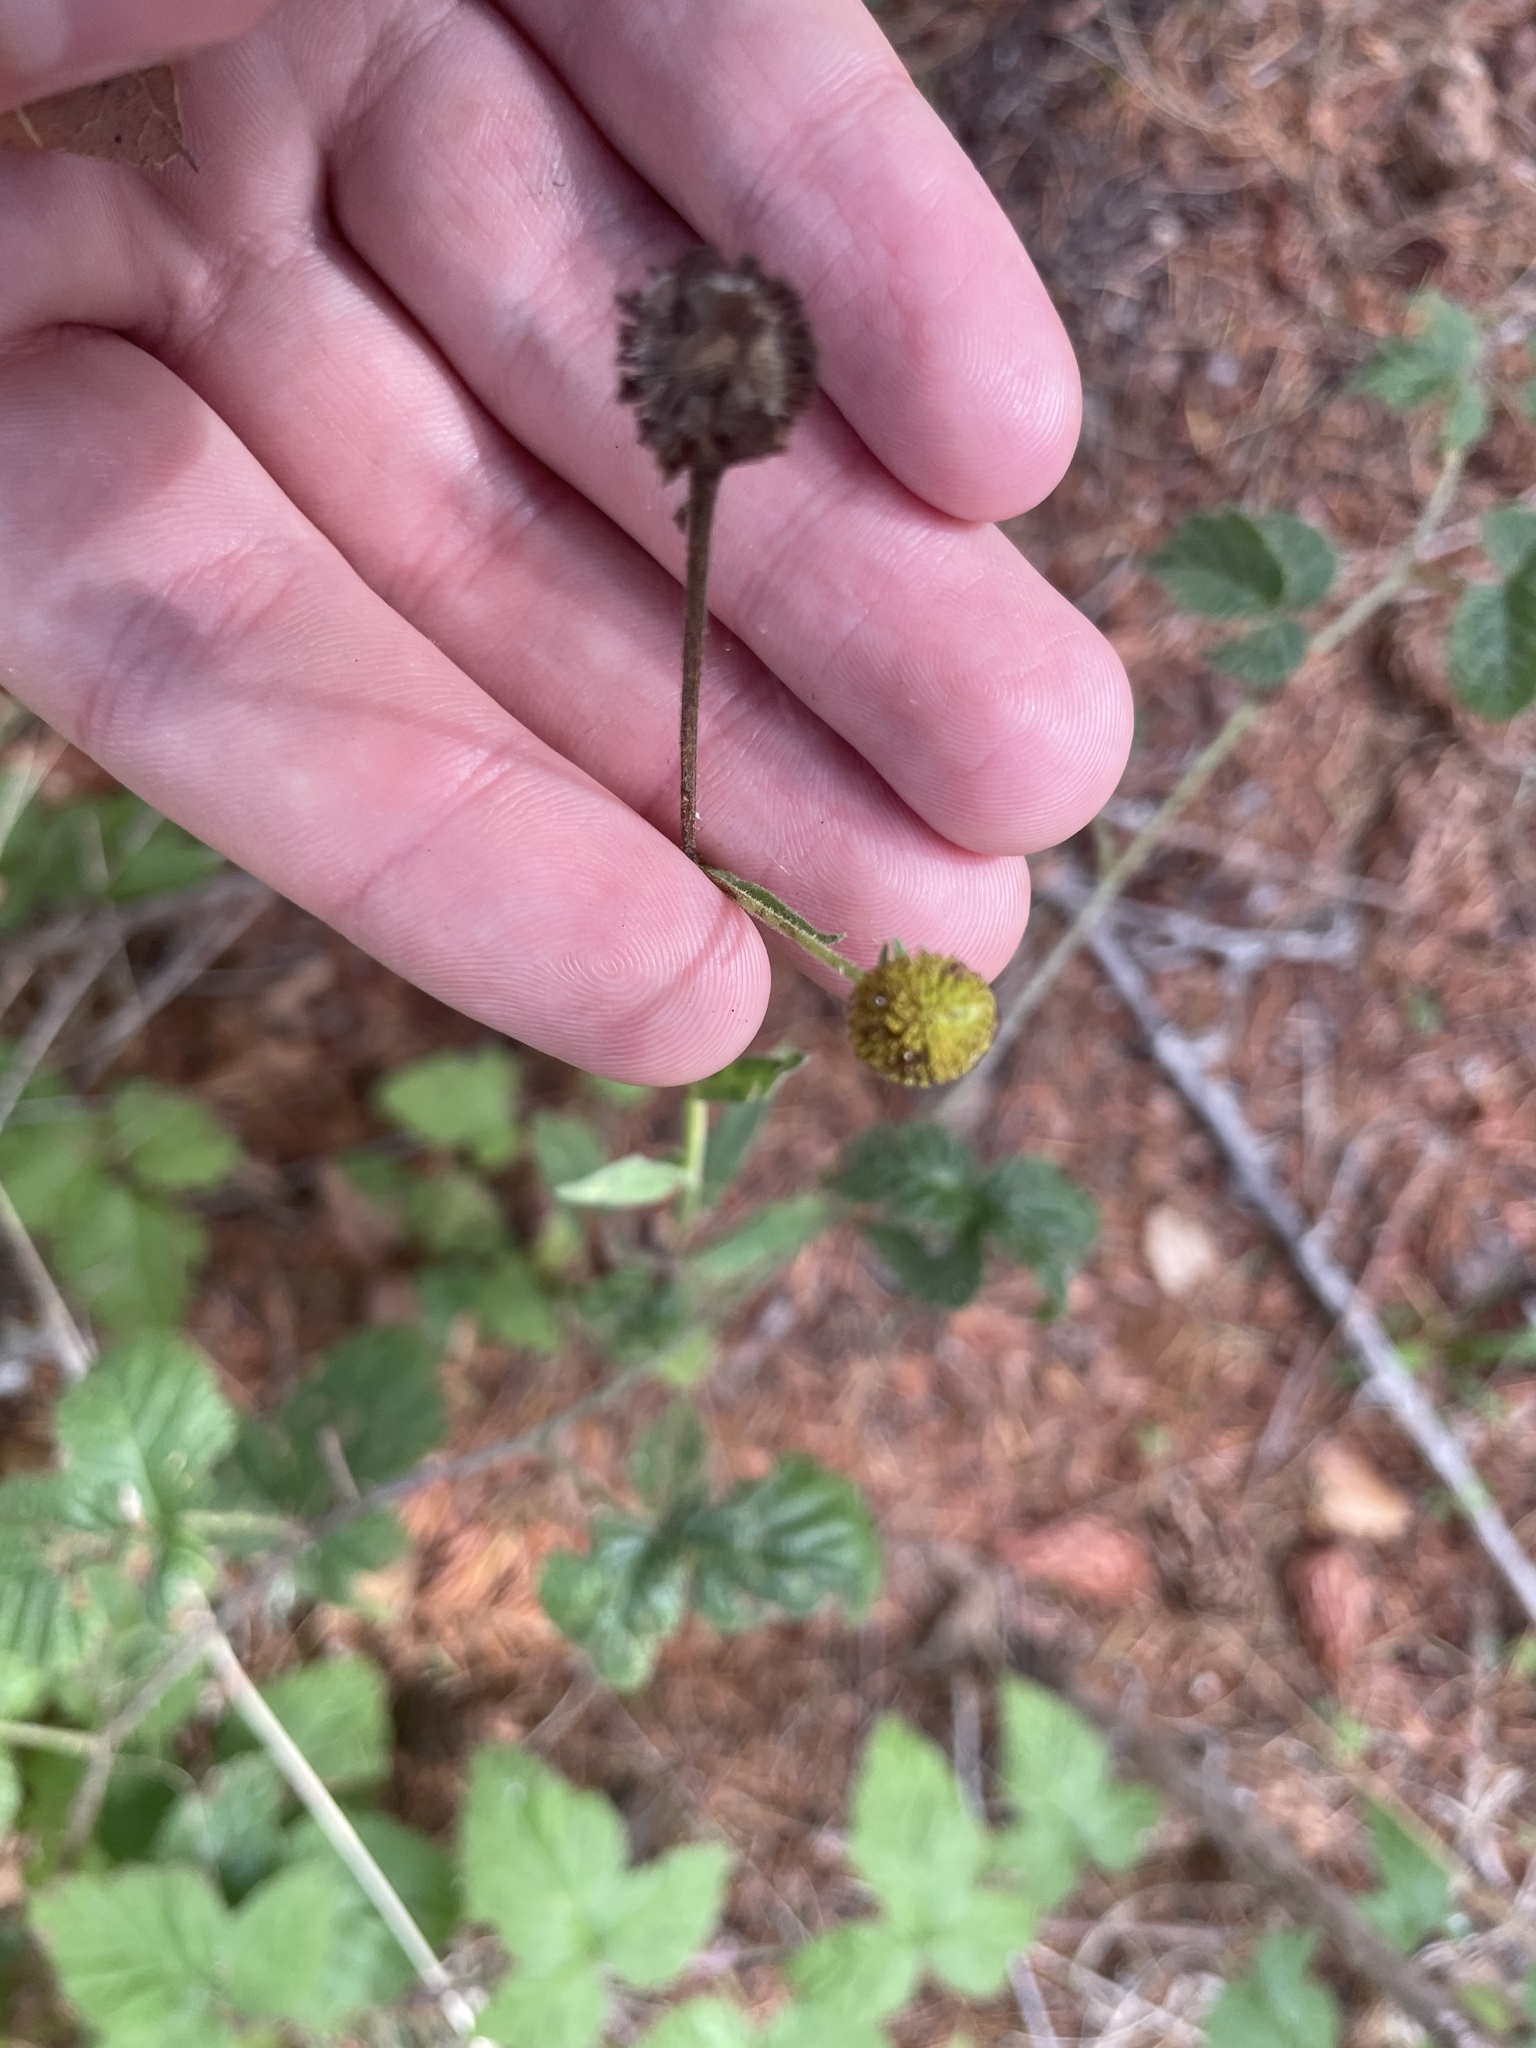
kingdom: Plantae
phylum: Tracheophyta
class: Magnoliopsida
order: Asterales
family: Asteraceae
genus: Helenium
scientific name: Helenium puberulum
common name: Sneezewort
